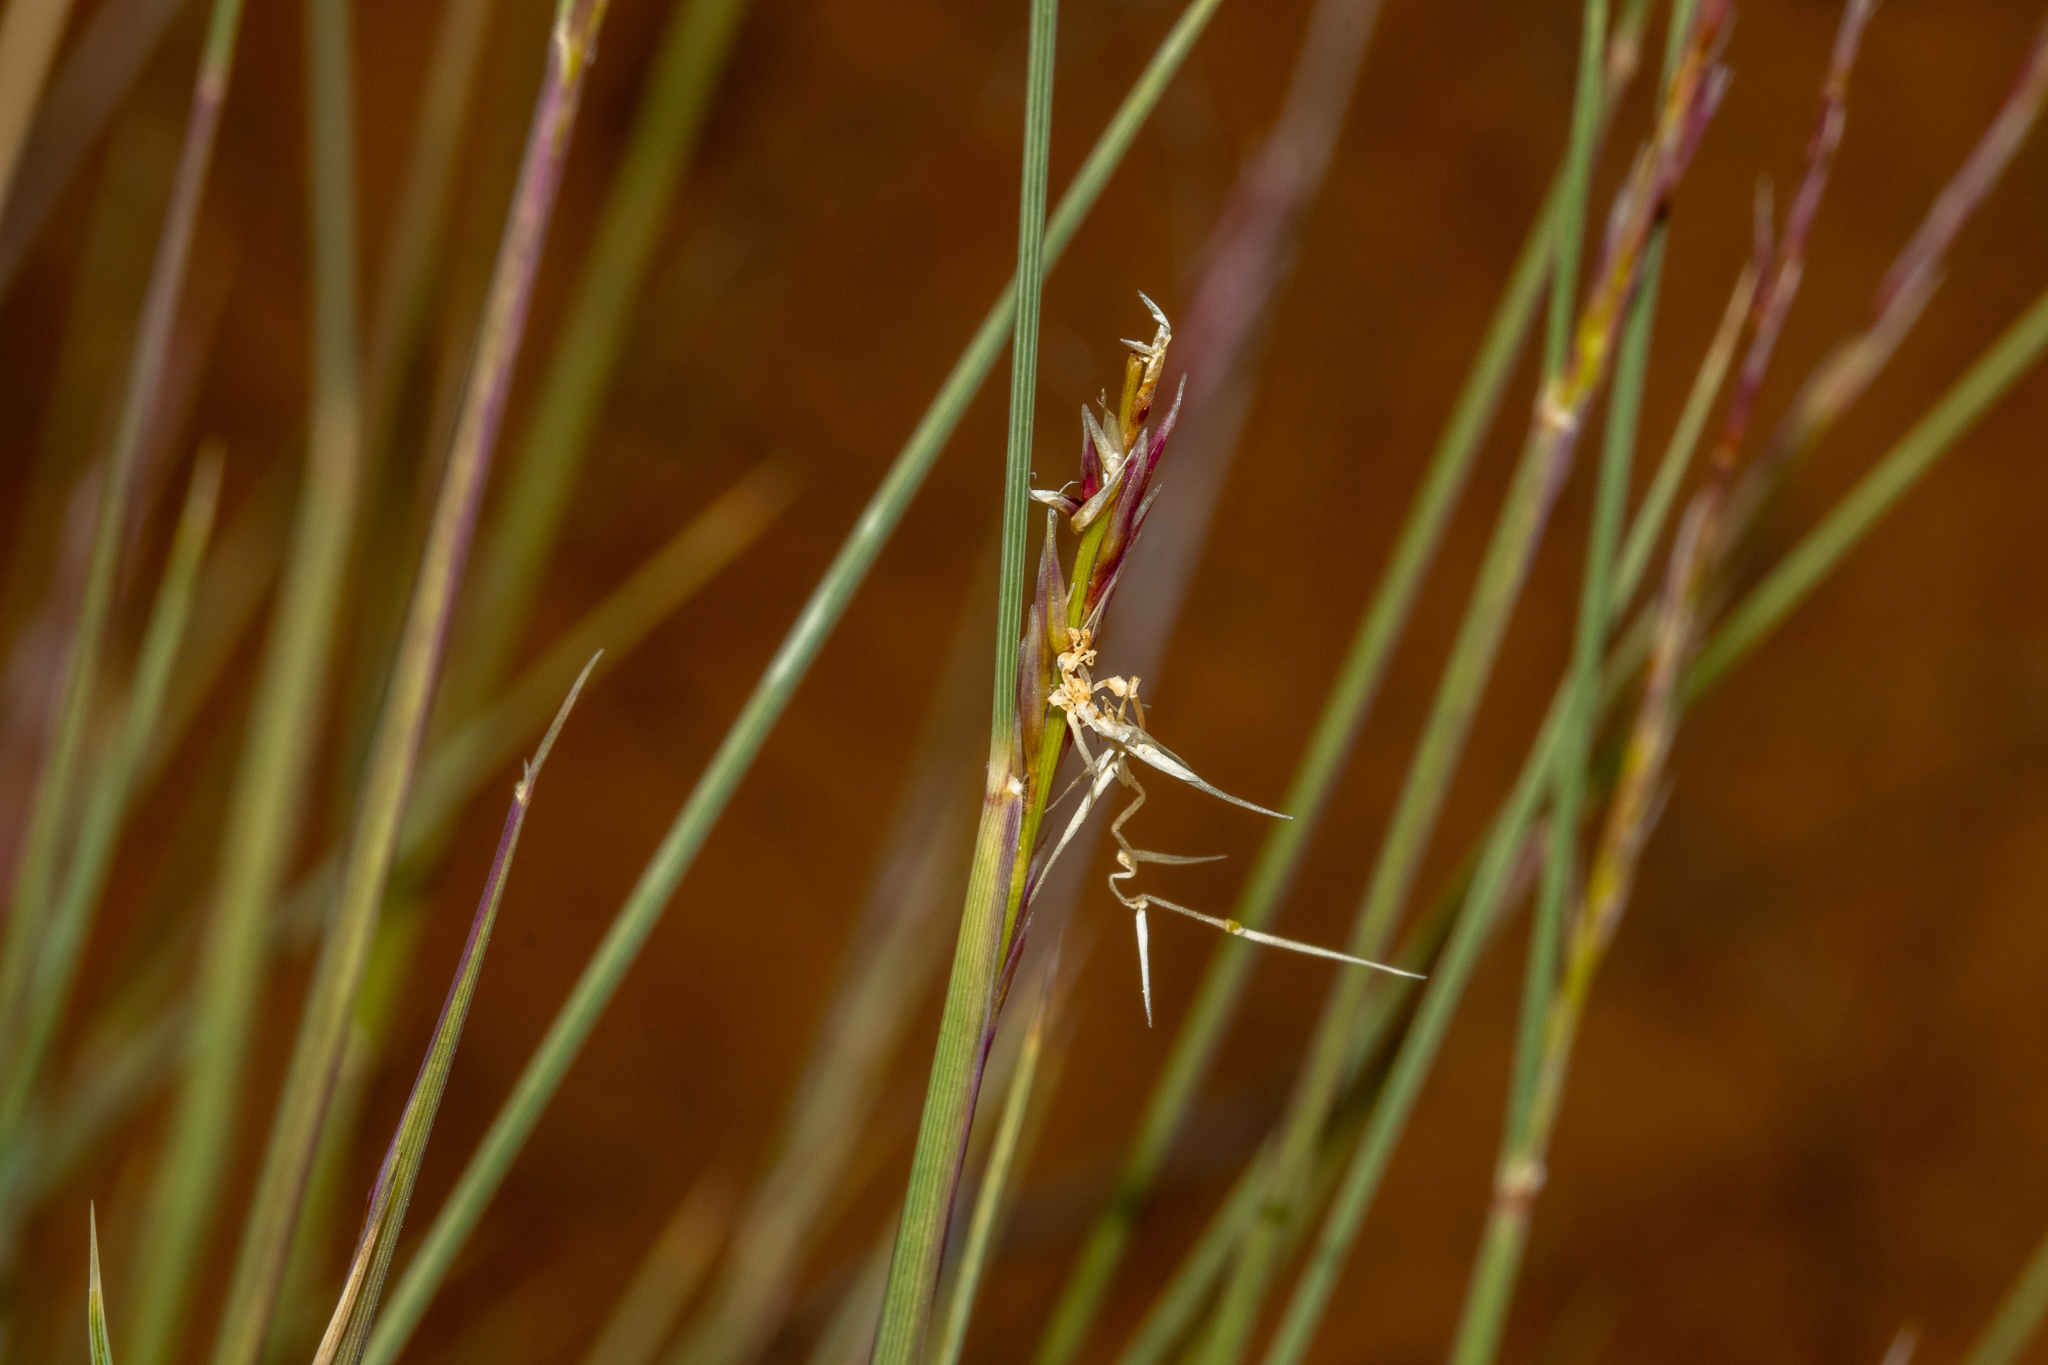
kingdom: Plantae
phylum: Tracheophyta
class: Liliopsida
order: Poales
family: Poaceae
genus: Triodia
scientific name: Triodia scariosa
